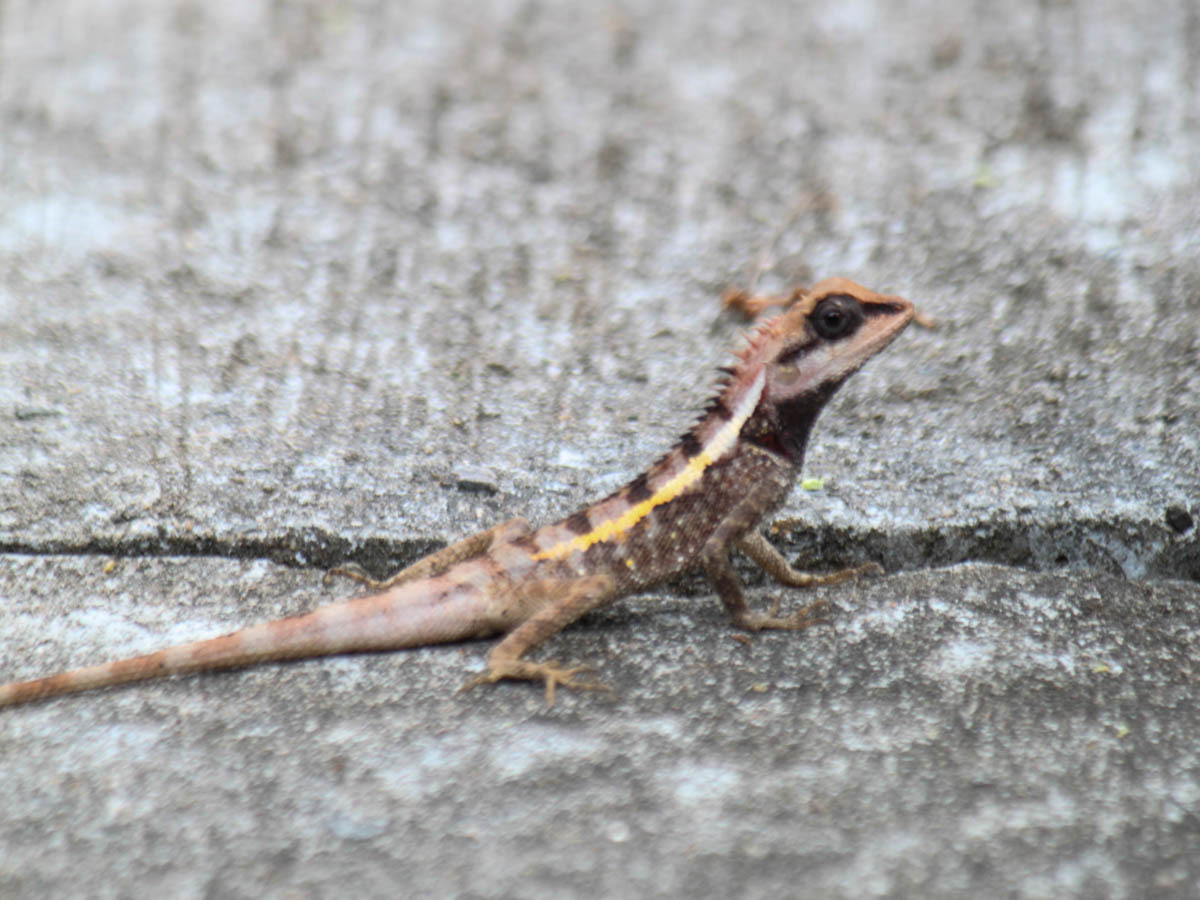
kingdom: Animalia
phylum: Chordata
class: Squamata
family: Agamidae
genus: Calotes
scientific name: Calotes emma
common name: Thailand bloodsucker
